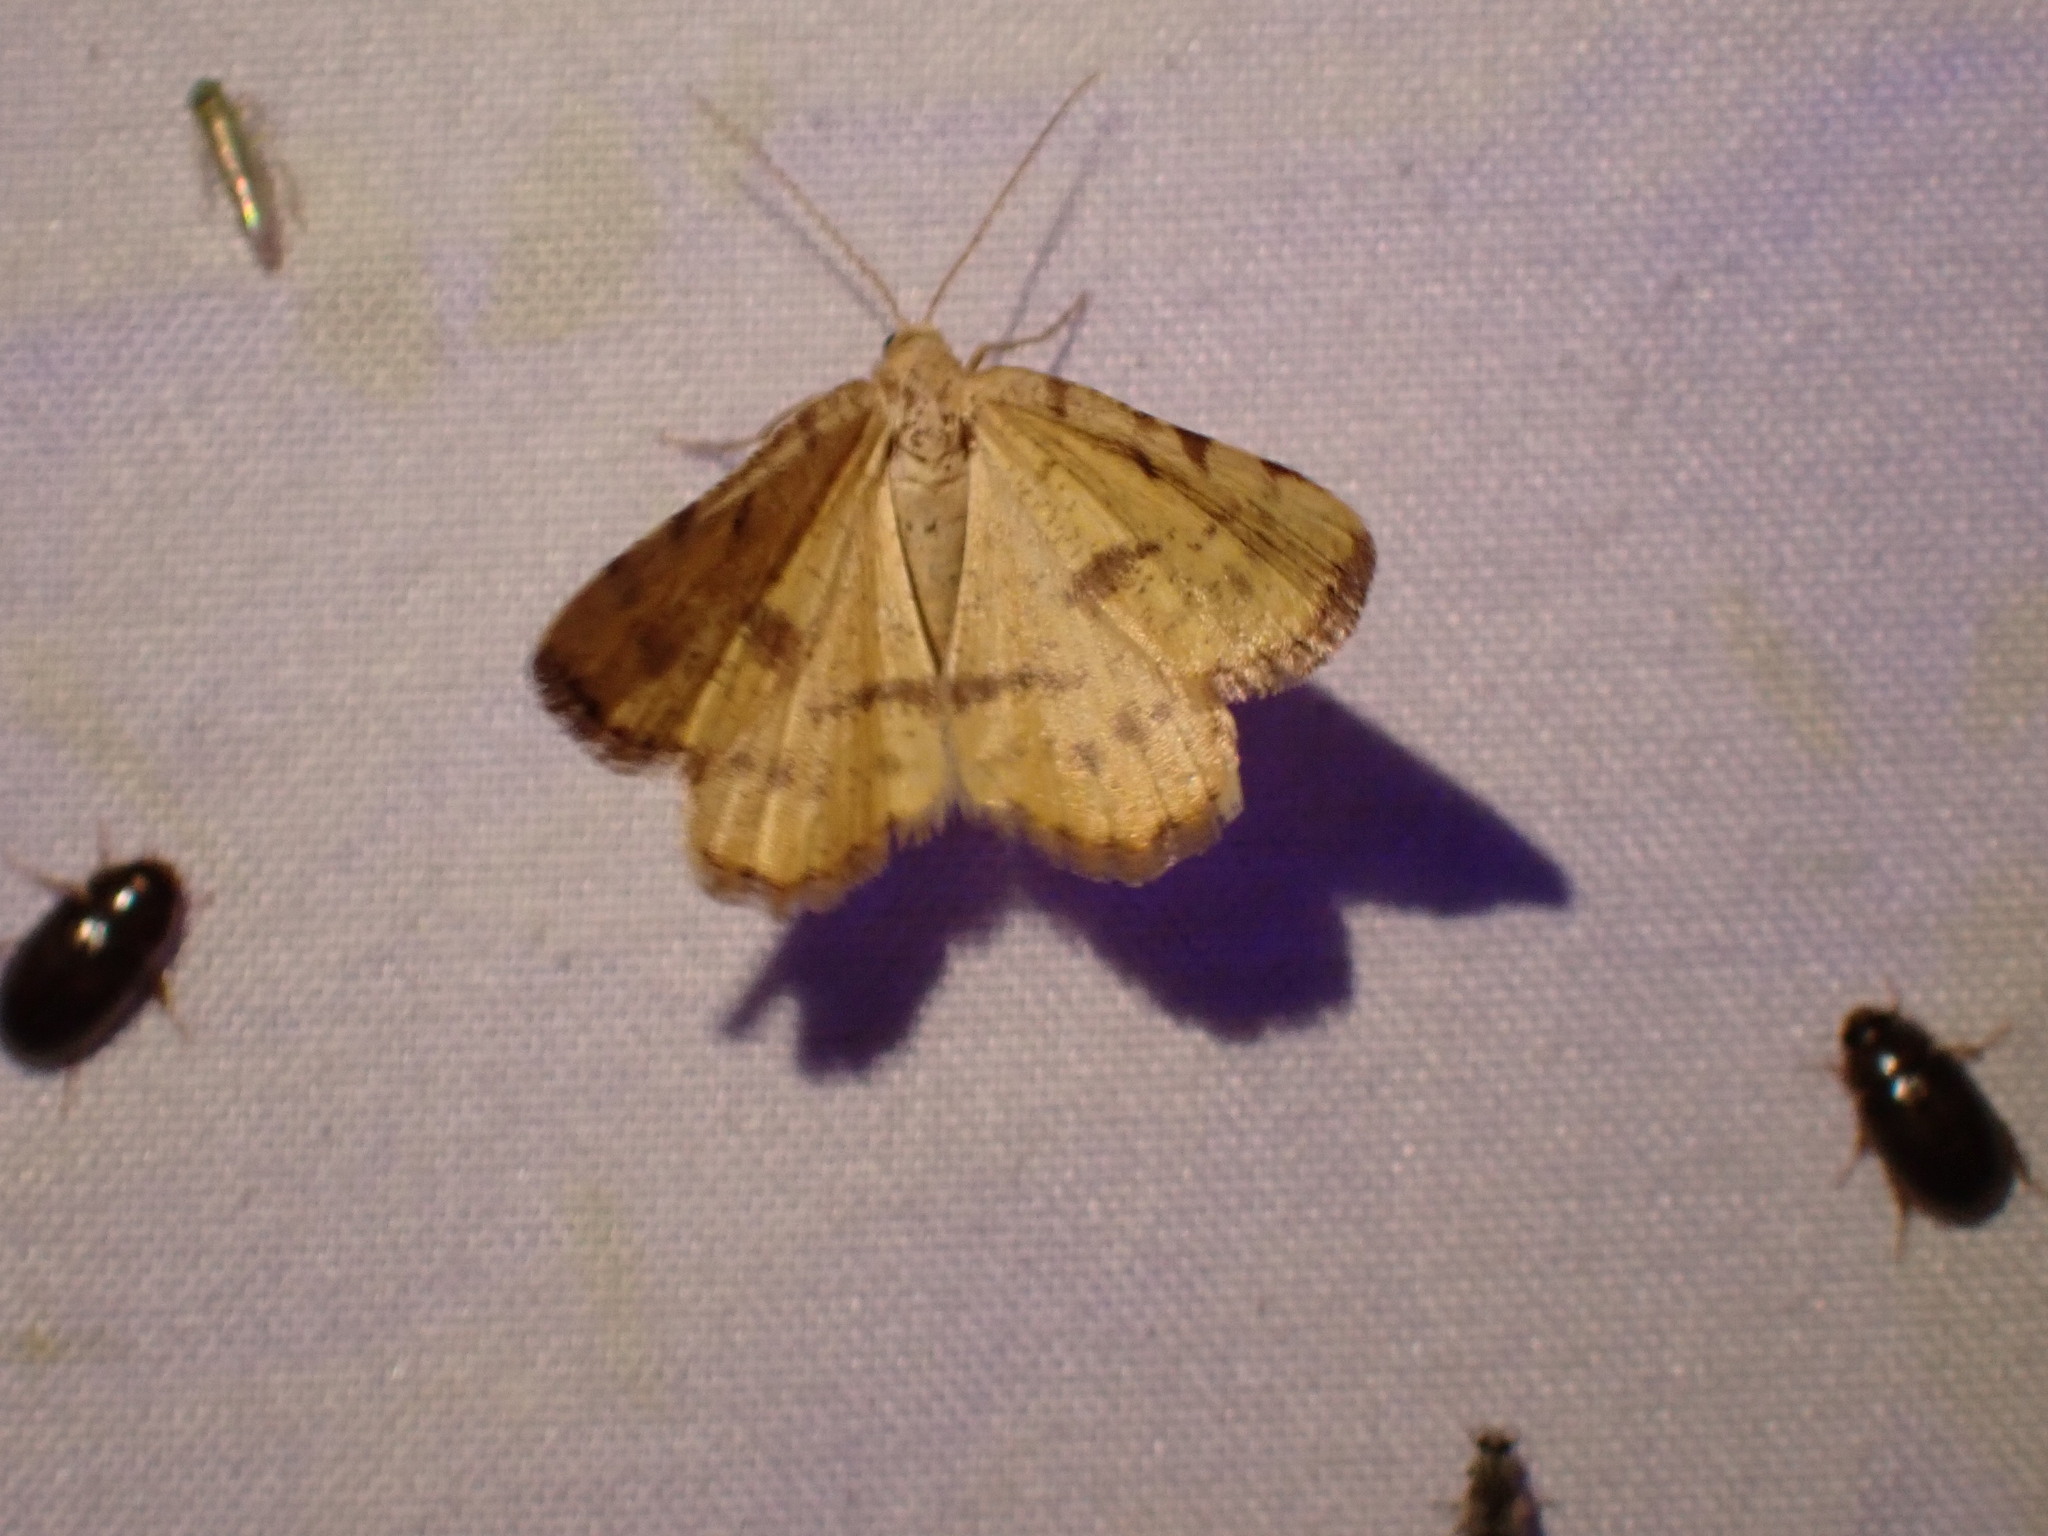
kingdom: Animalia
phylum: Arthropoda
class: Insecta
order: Lepidoptera
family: Geometridae
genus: Macaria
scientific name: Macaria amboflava
